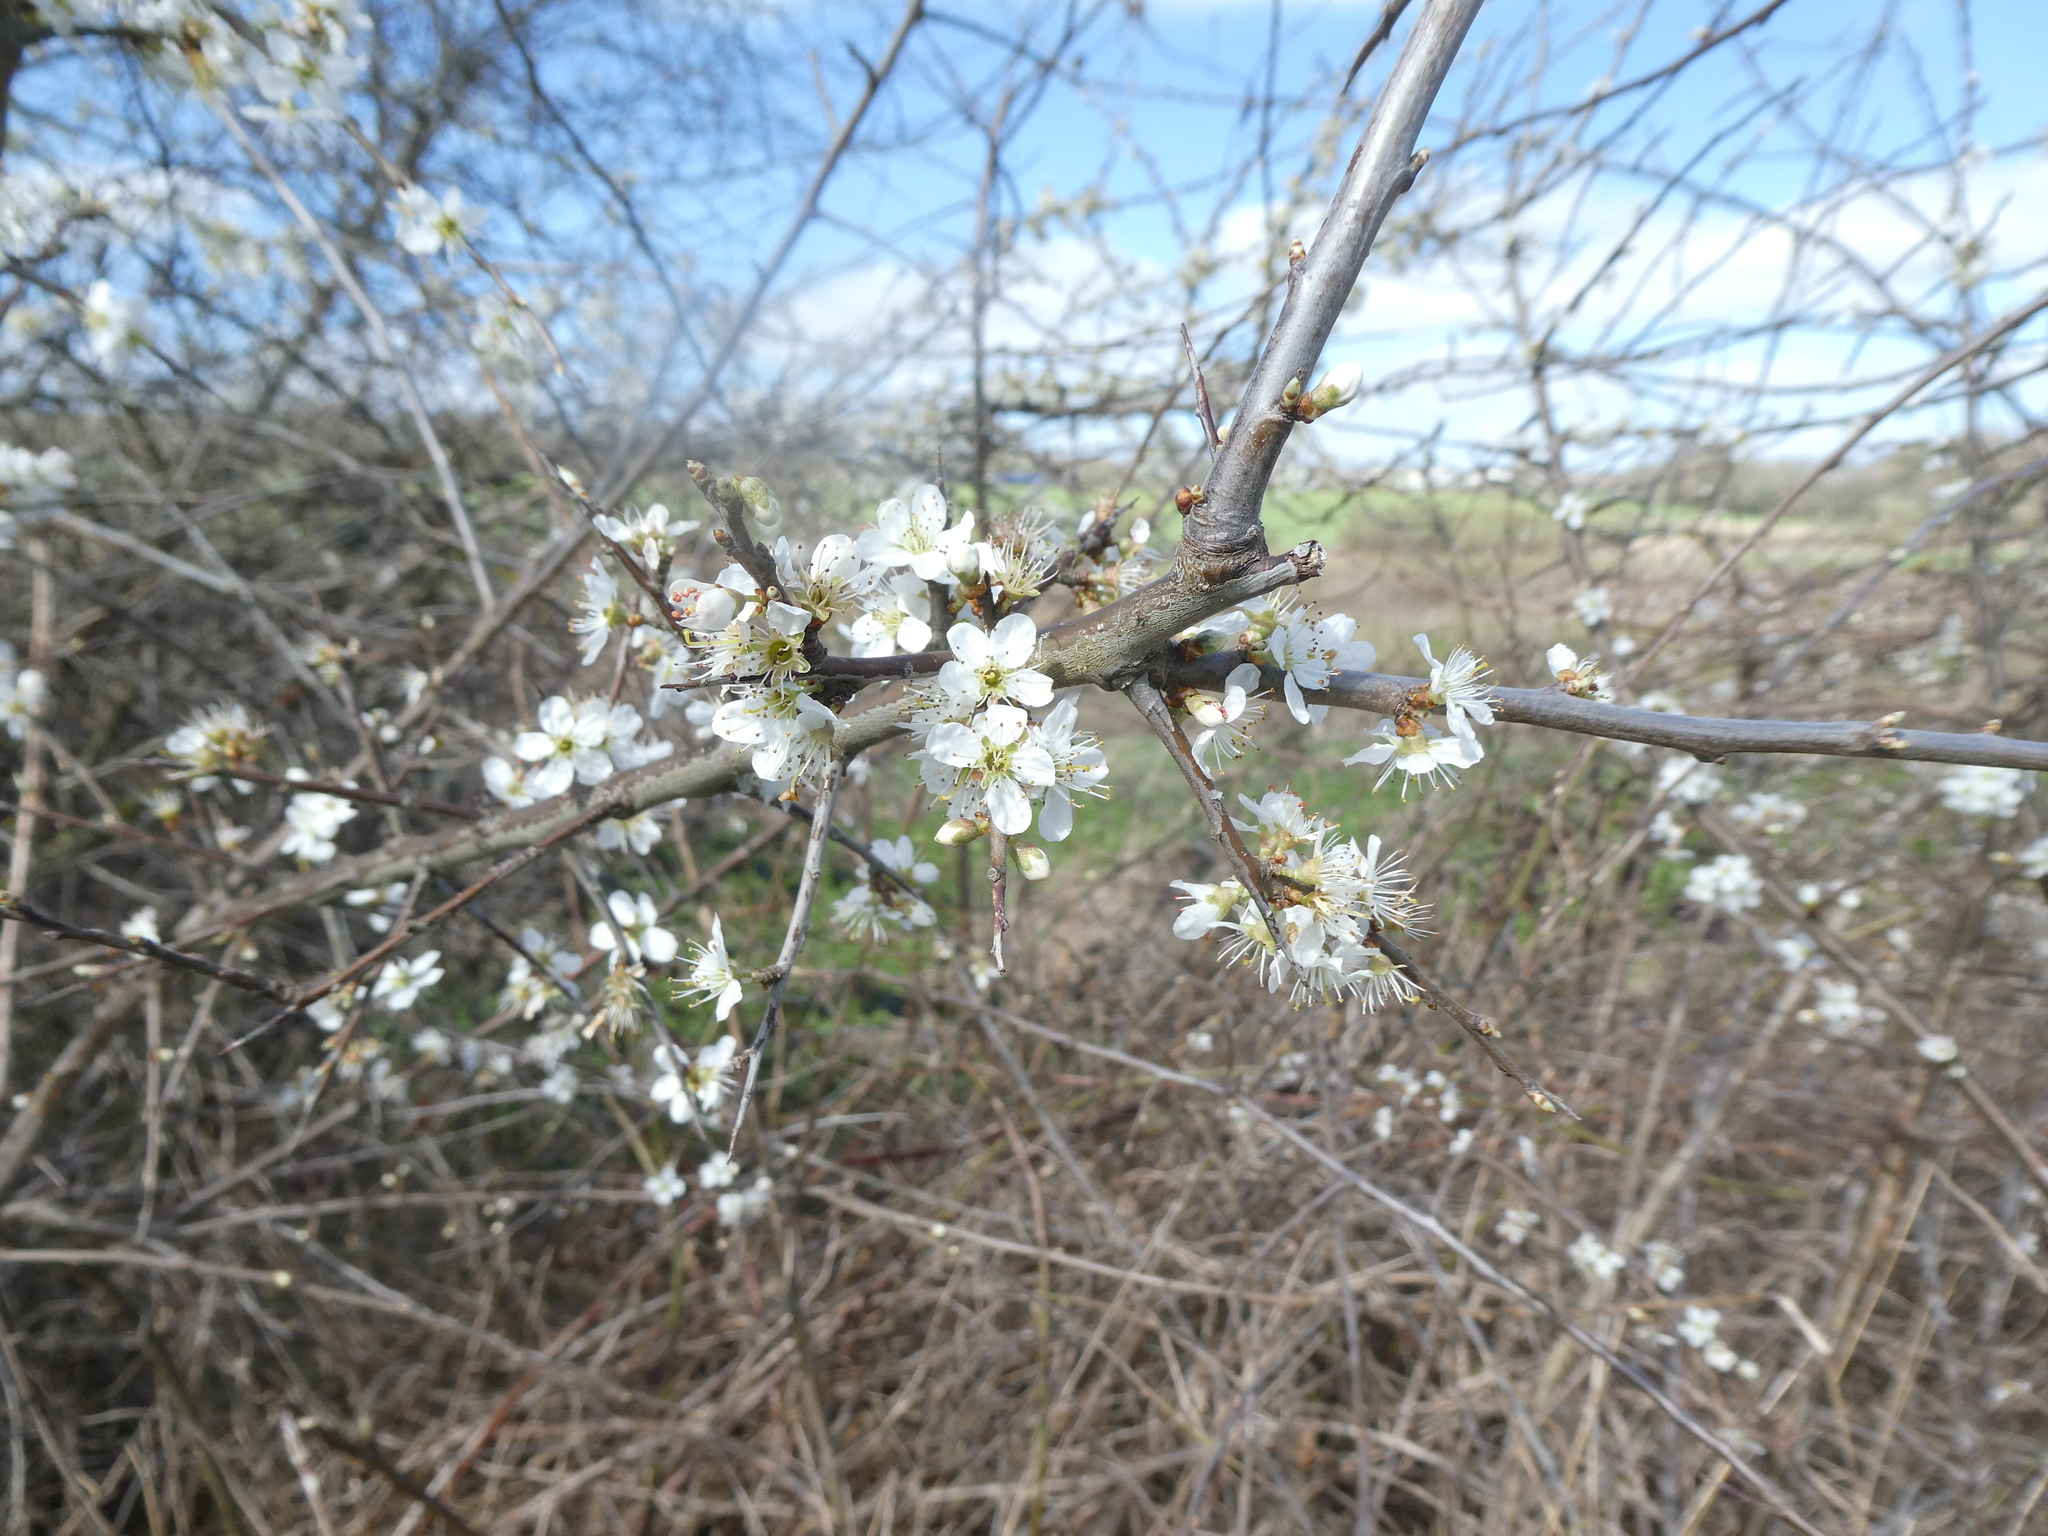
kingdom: Plantae
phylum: Tracheophyta
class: Magnoliopsida
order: Rosales
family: Rosaceae
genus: Prunus
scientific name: Prunus spinosa
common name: Blackthorn
